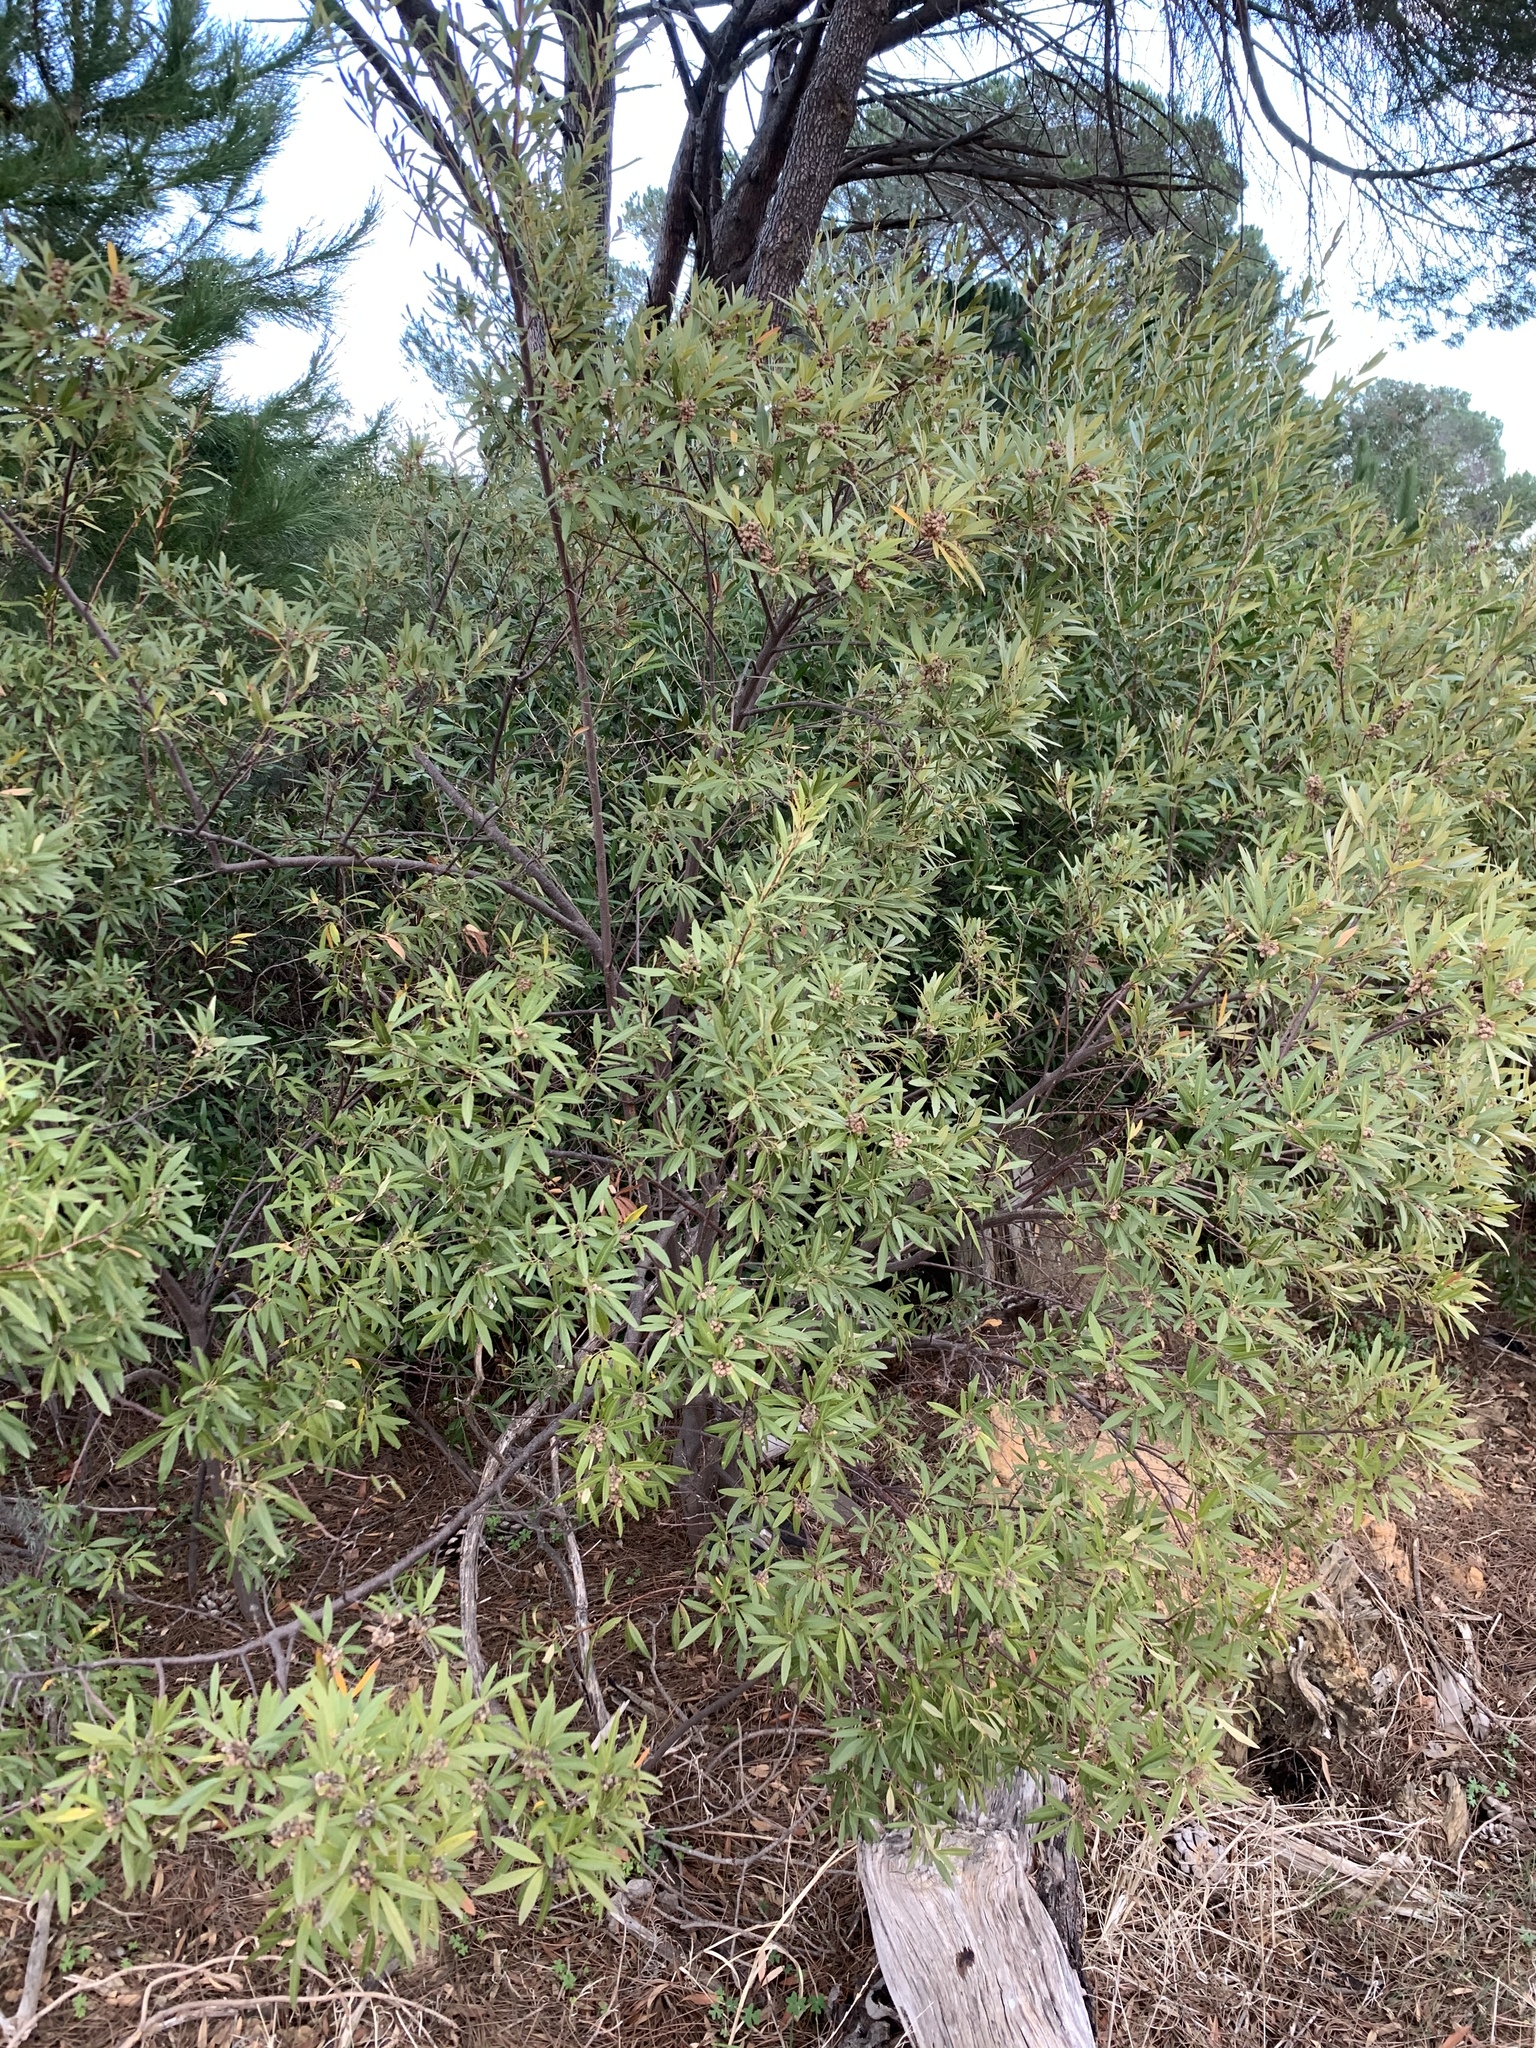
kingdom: Plantae
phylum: Tracheophyta
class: Magnoliopsida
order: Sapindales
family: Anacardiaceae
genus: Searsia
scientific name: Searsia angustifolia
